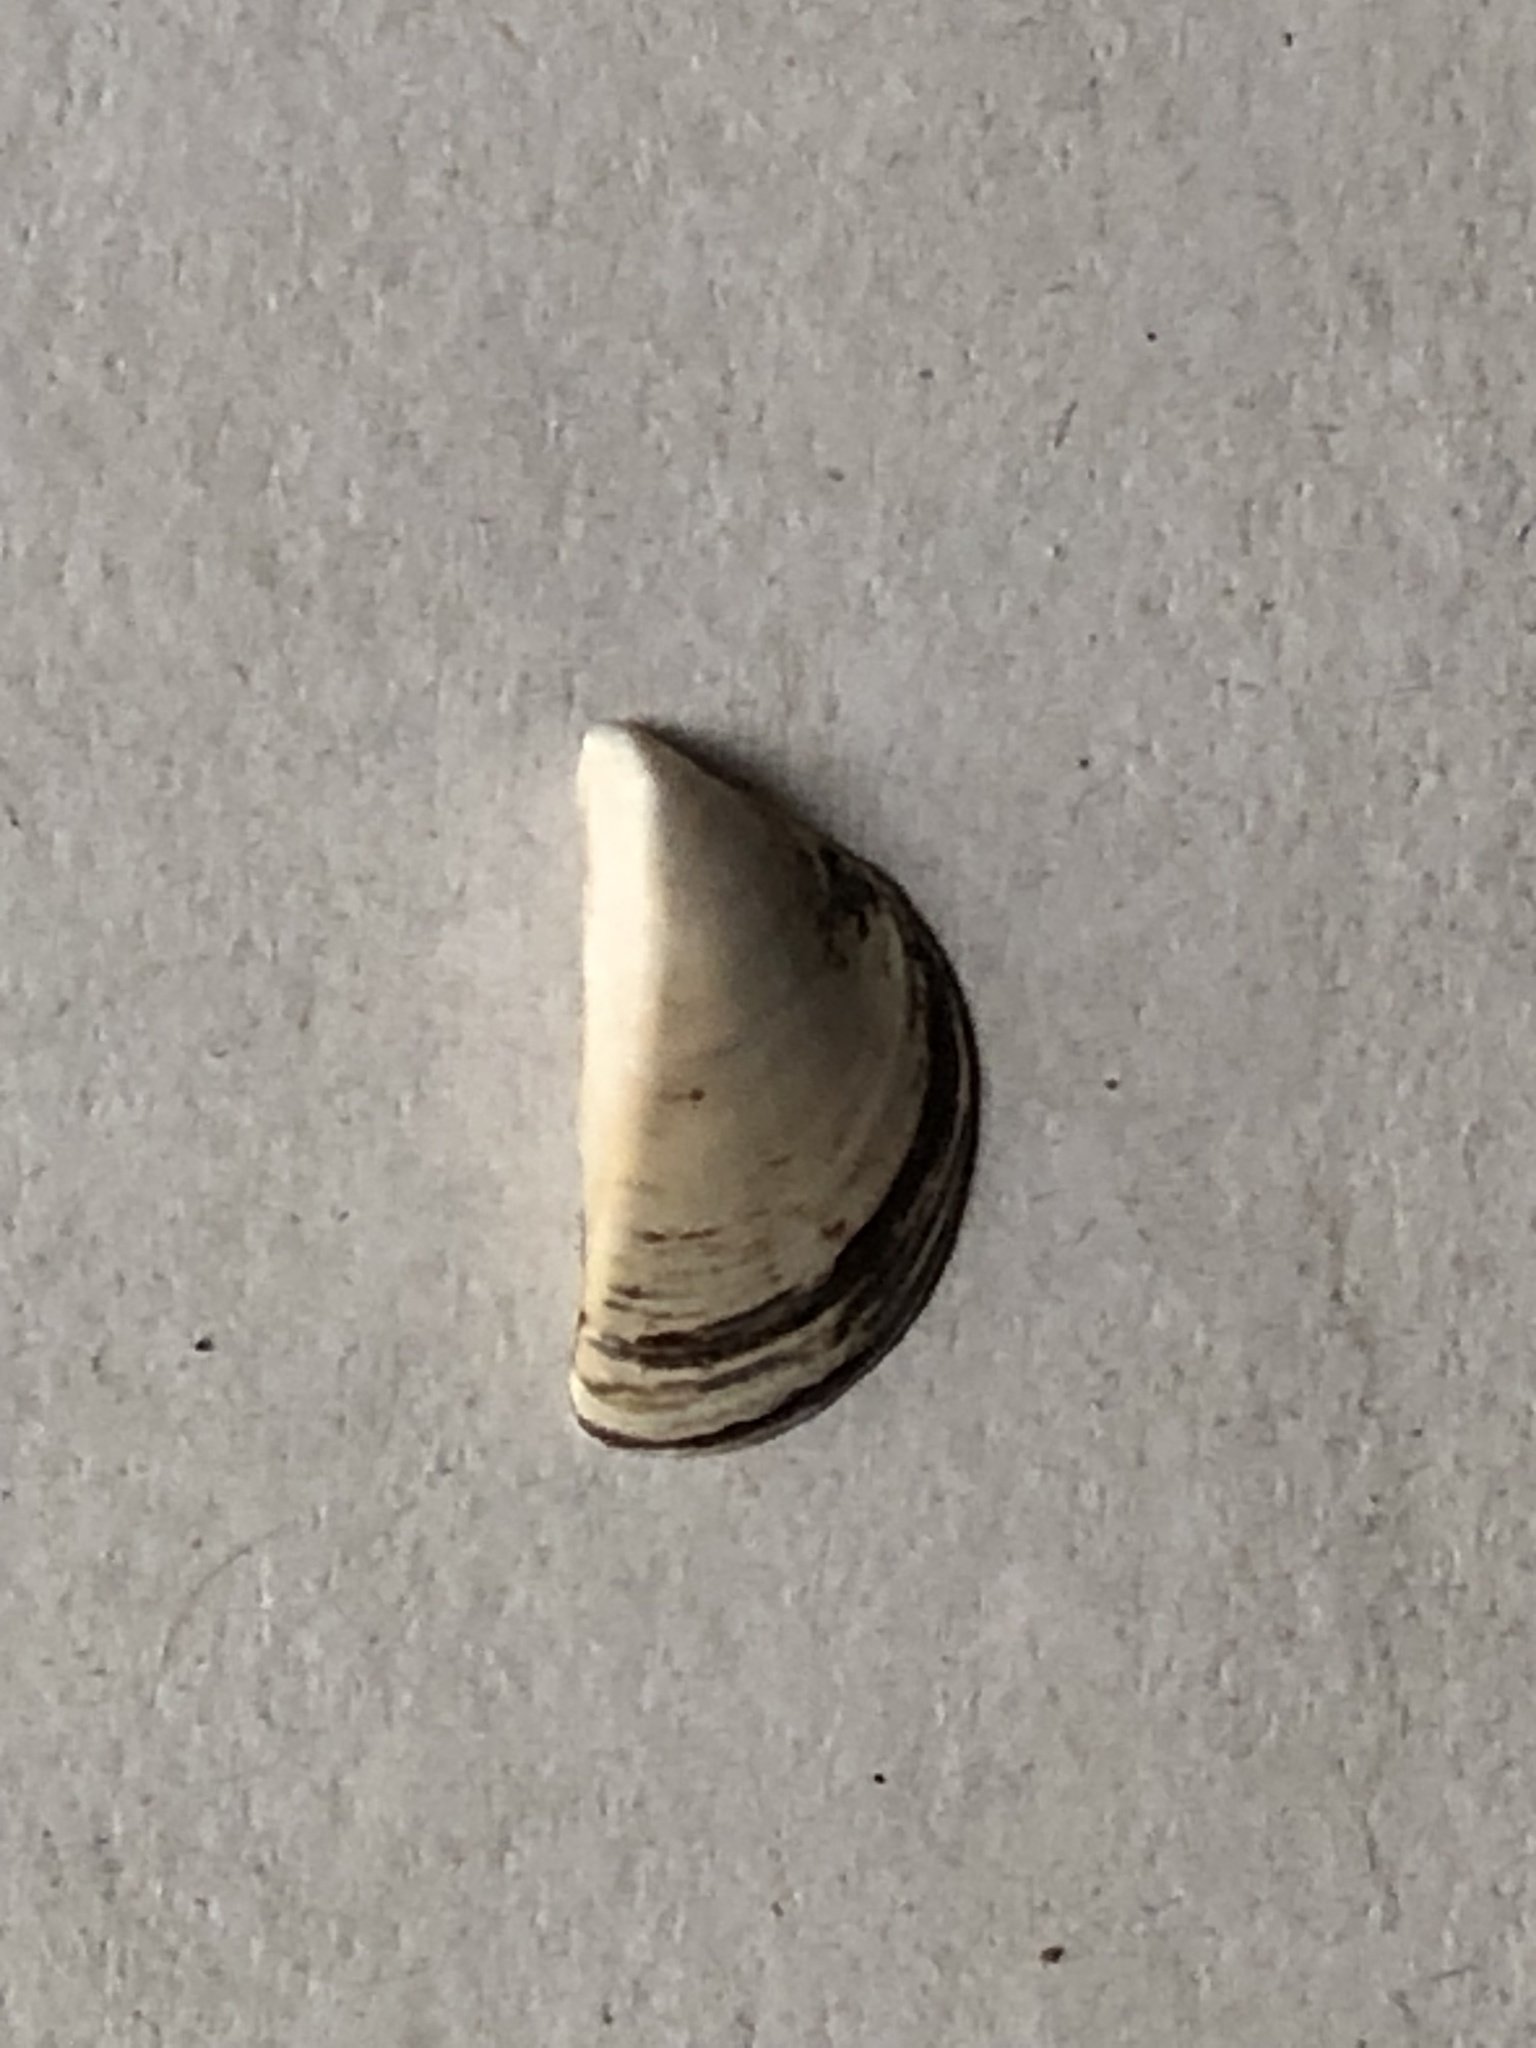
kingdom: Animalia
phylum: Mollusca
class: Bivalvia
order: Myida
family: Dreissenidae
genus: Dreissena
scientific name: Dreissena polymorpha
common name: Zebra mussel
